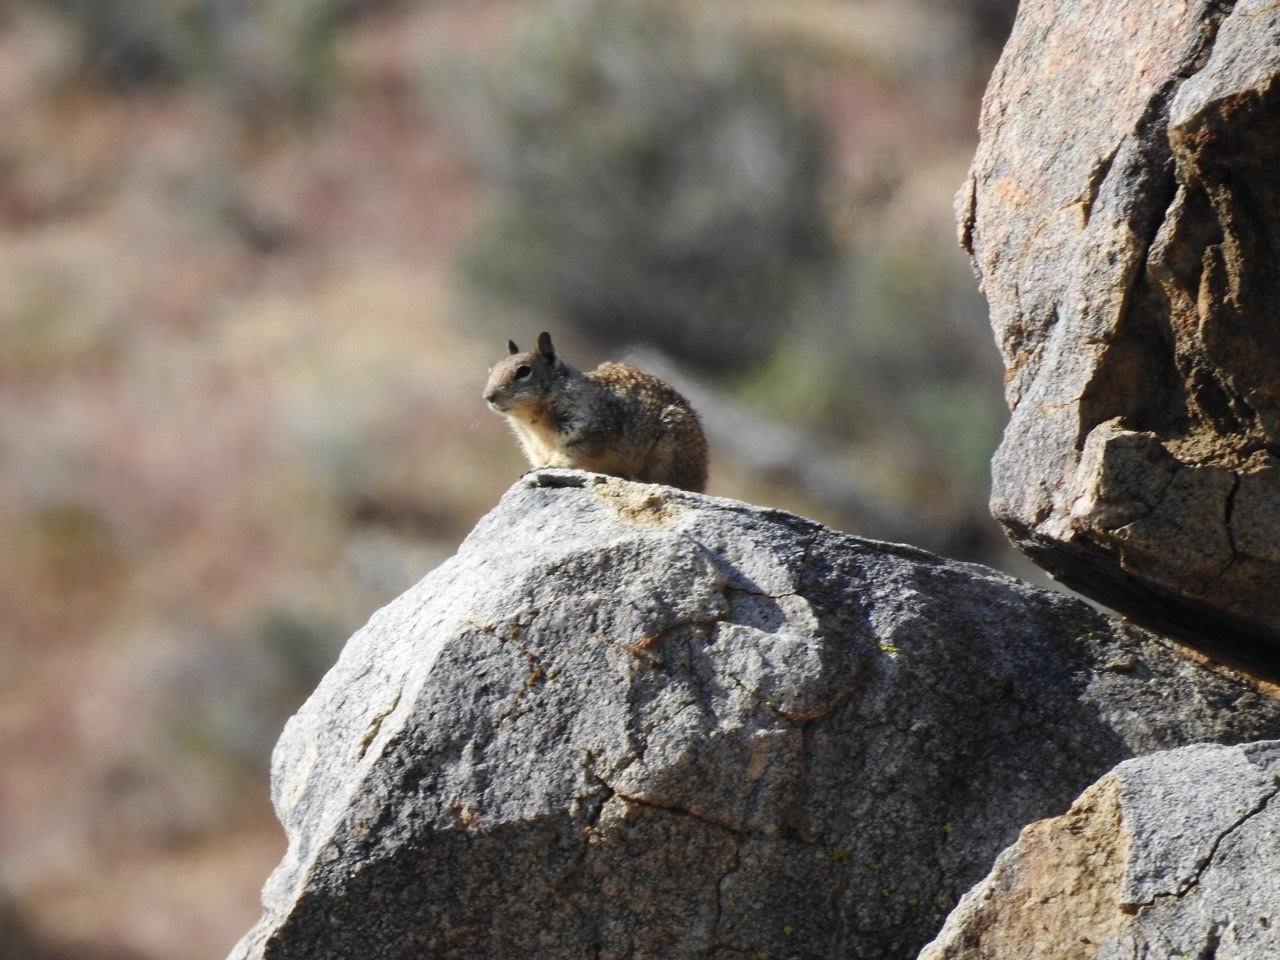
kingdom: Animalia
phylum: Chordata
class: Mammalia
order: Rodentia
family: Sciuridae
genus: Otospermophilus
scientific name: Otospermophilus beecheyi
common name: California ground squirrel
